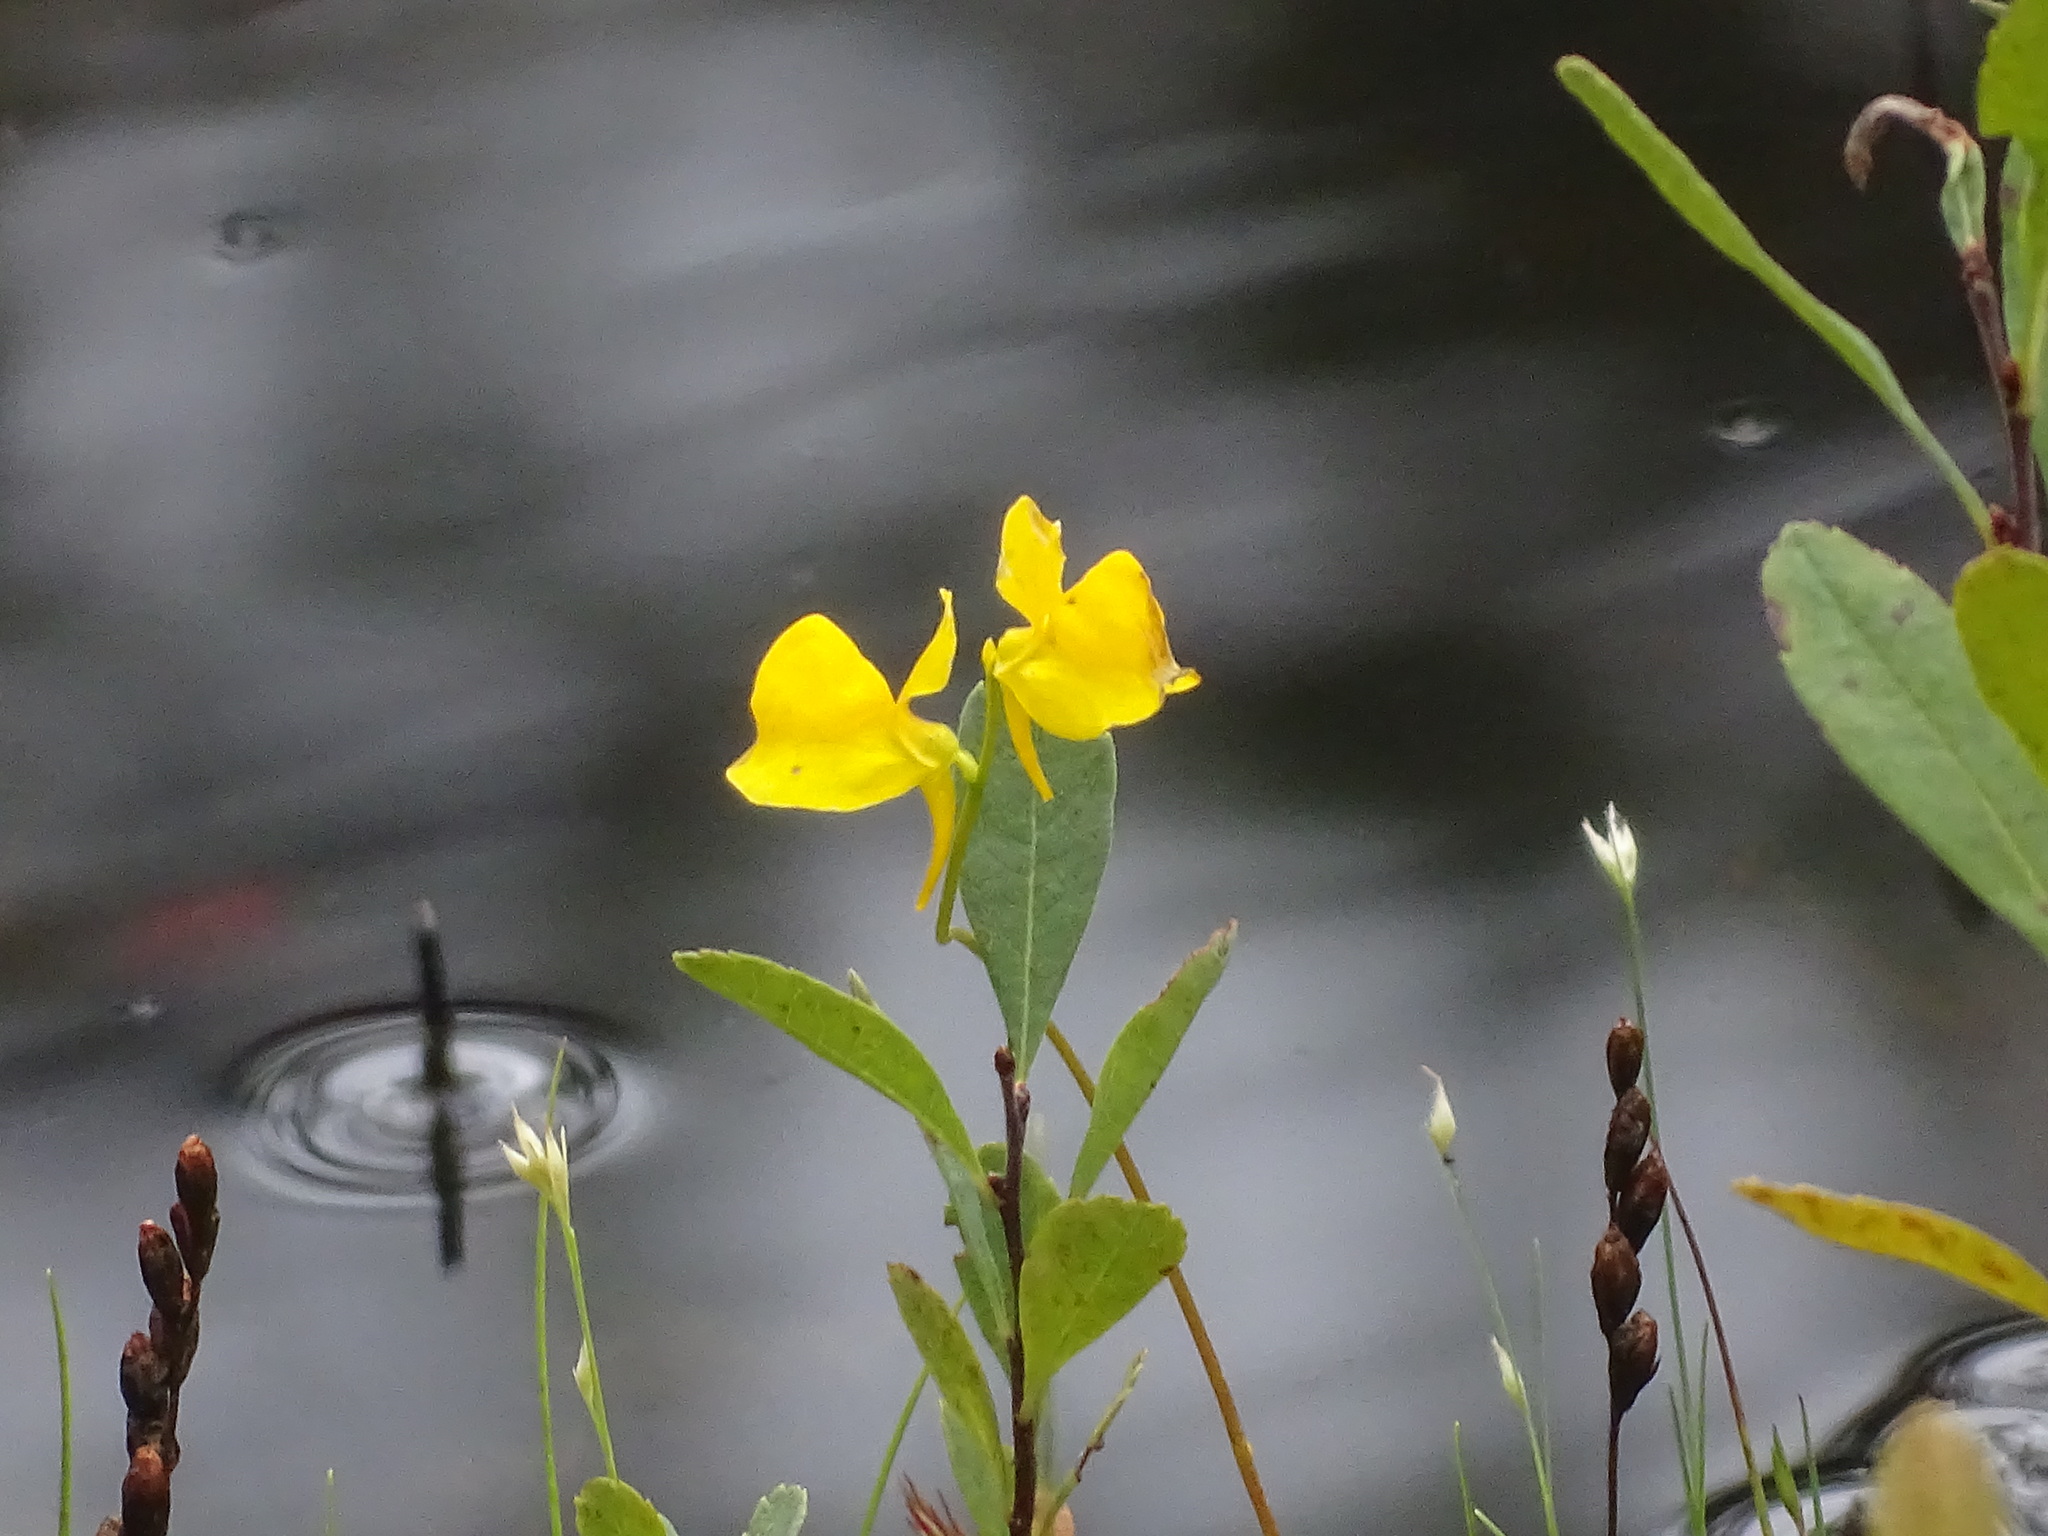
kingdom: Plantae
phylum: Tracheophyta
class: Magnoliopsida
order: Lamiales
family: Lentibulariaceae
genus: Utricularia
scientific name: Utricularia cornuta
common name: Horned bladderwort
